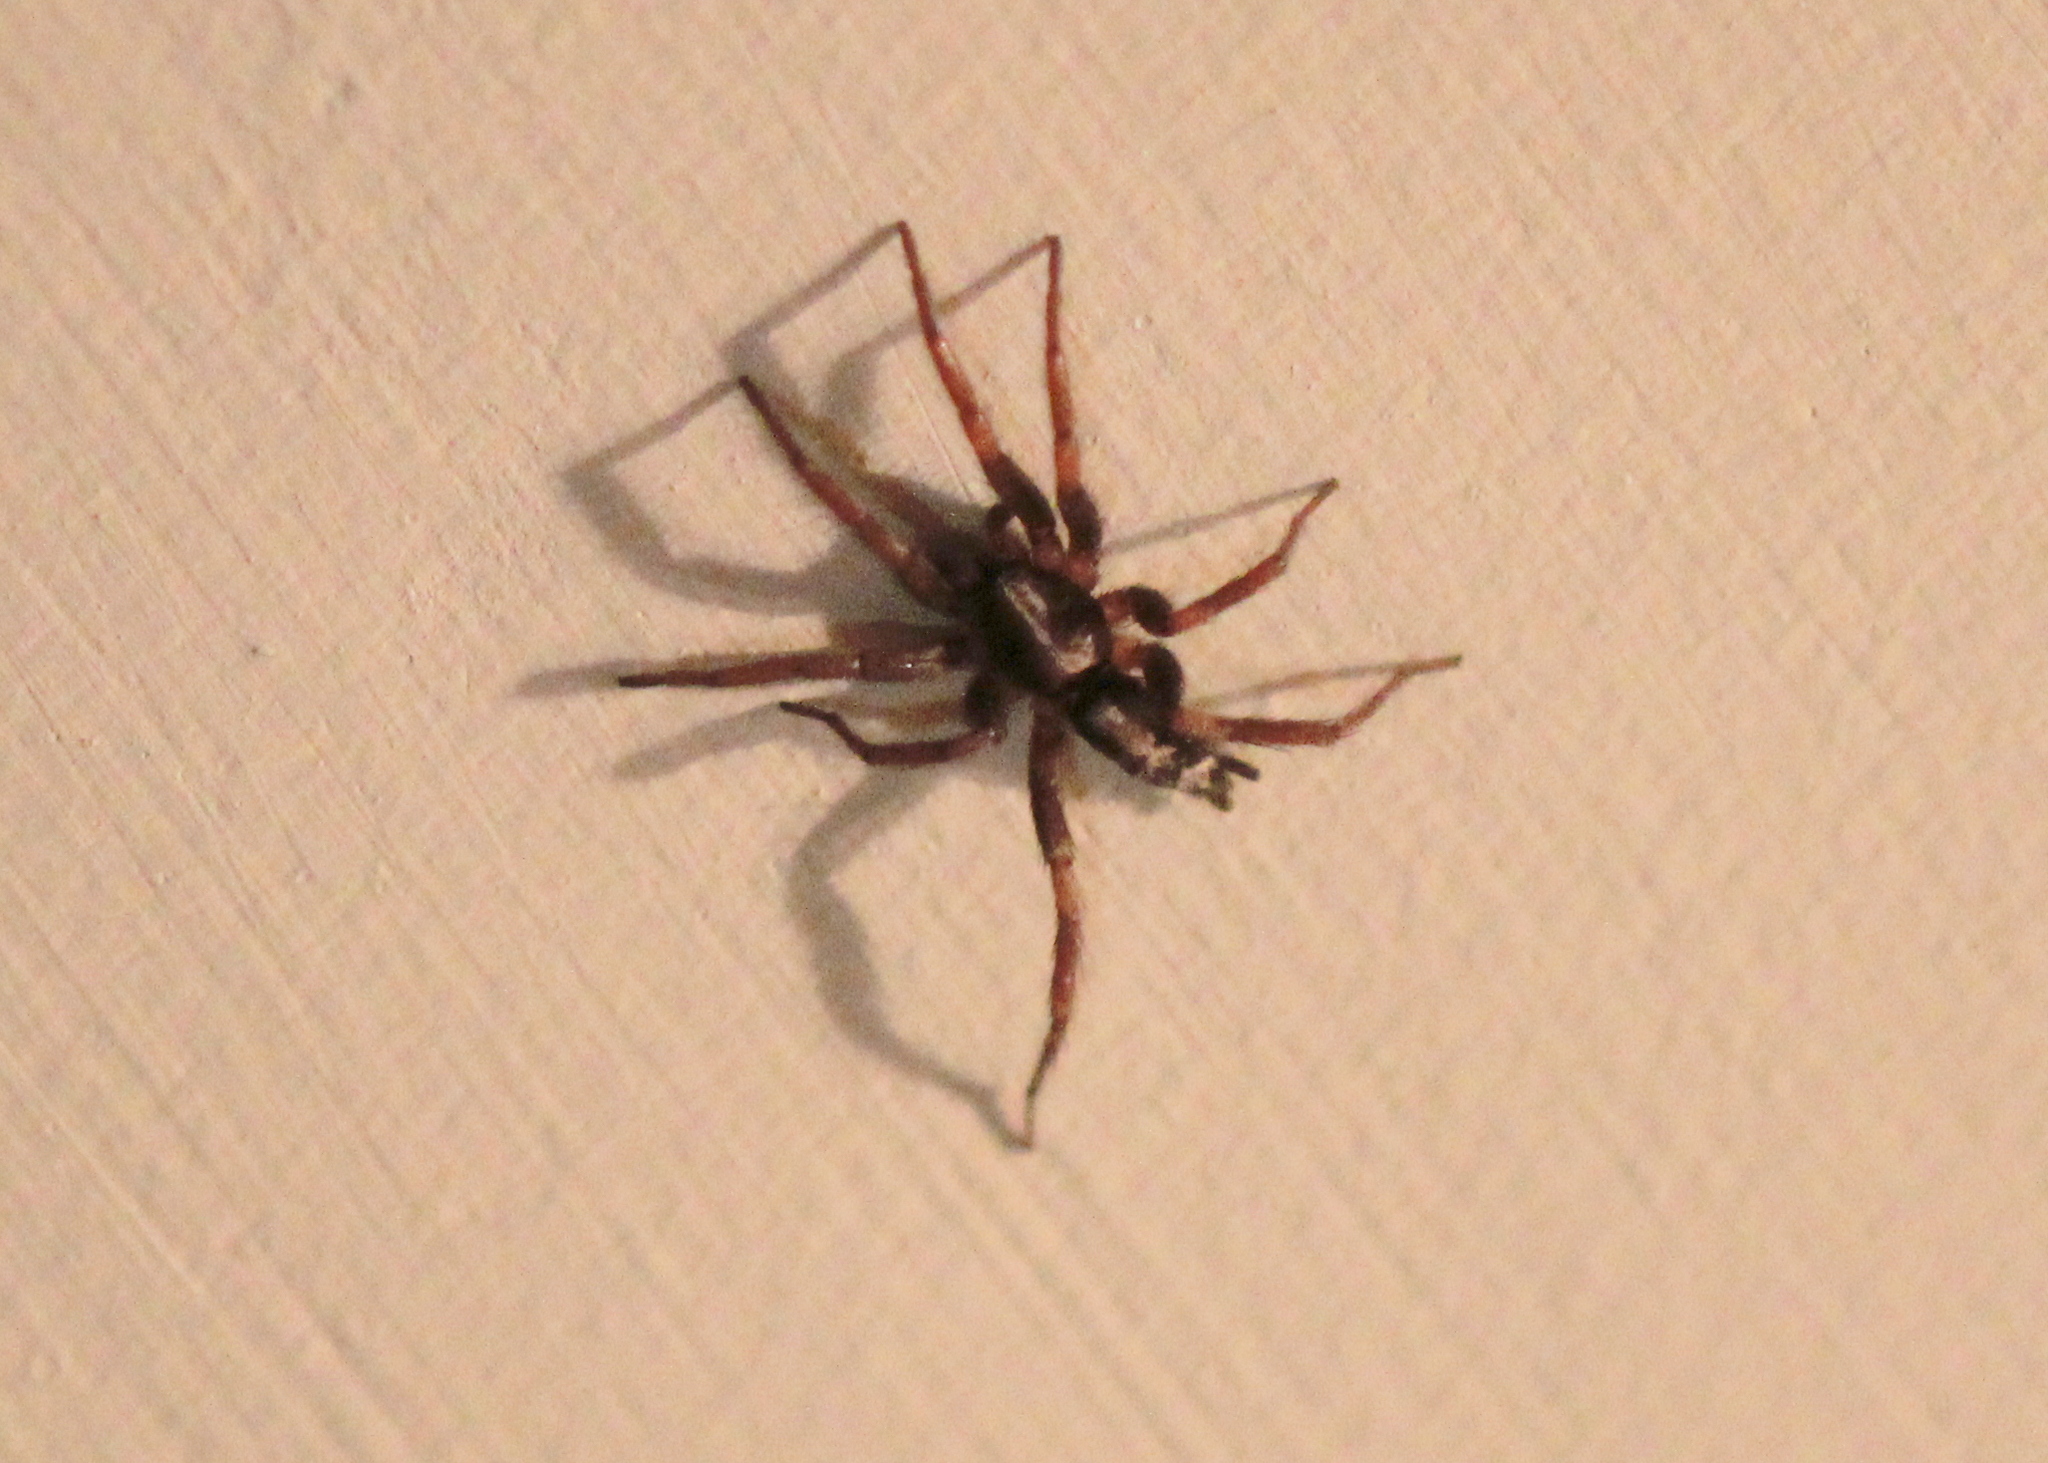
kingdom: Animalia
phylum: Arthropoda
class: Arachnida
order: Araneae
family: Gnaphosidae
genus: Herpyllus
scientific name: Herpyllus ecclesiasticus
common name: Eastern parson spider
